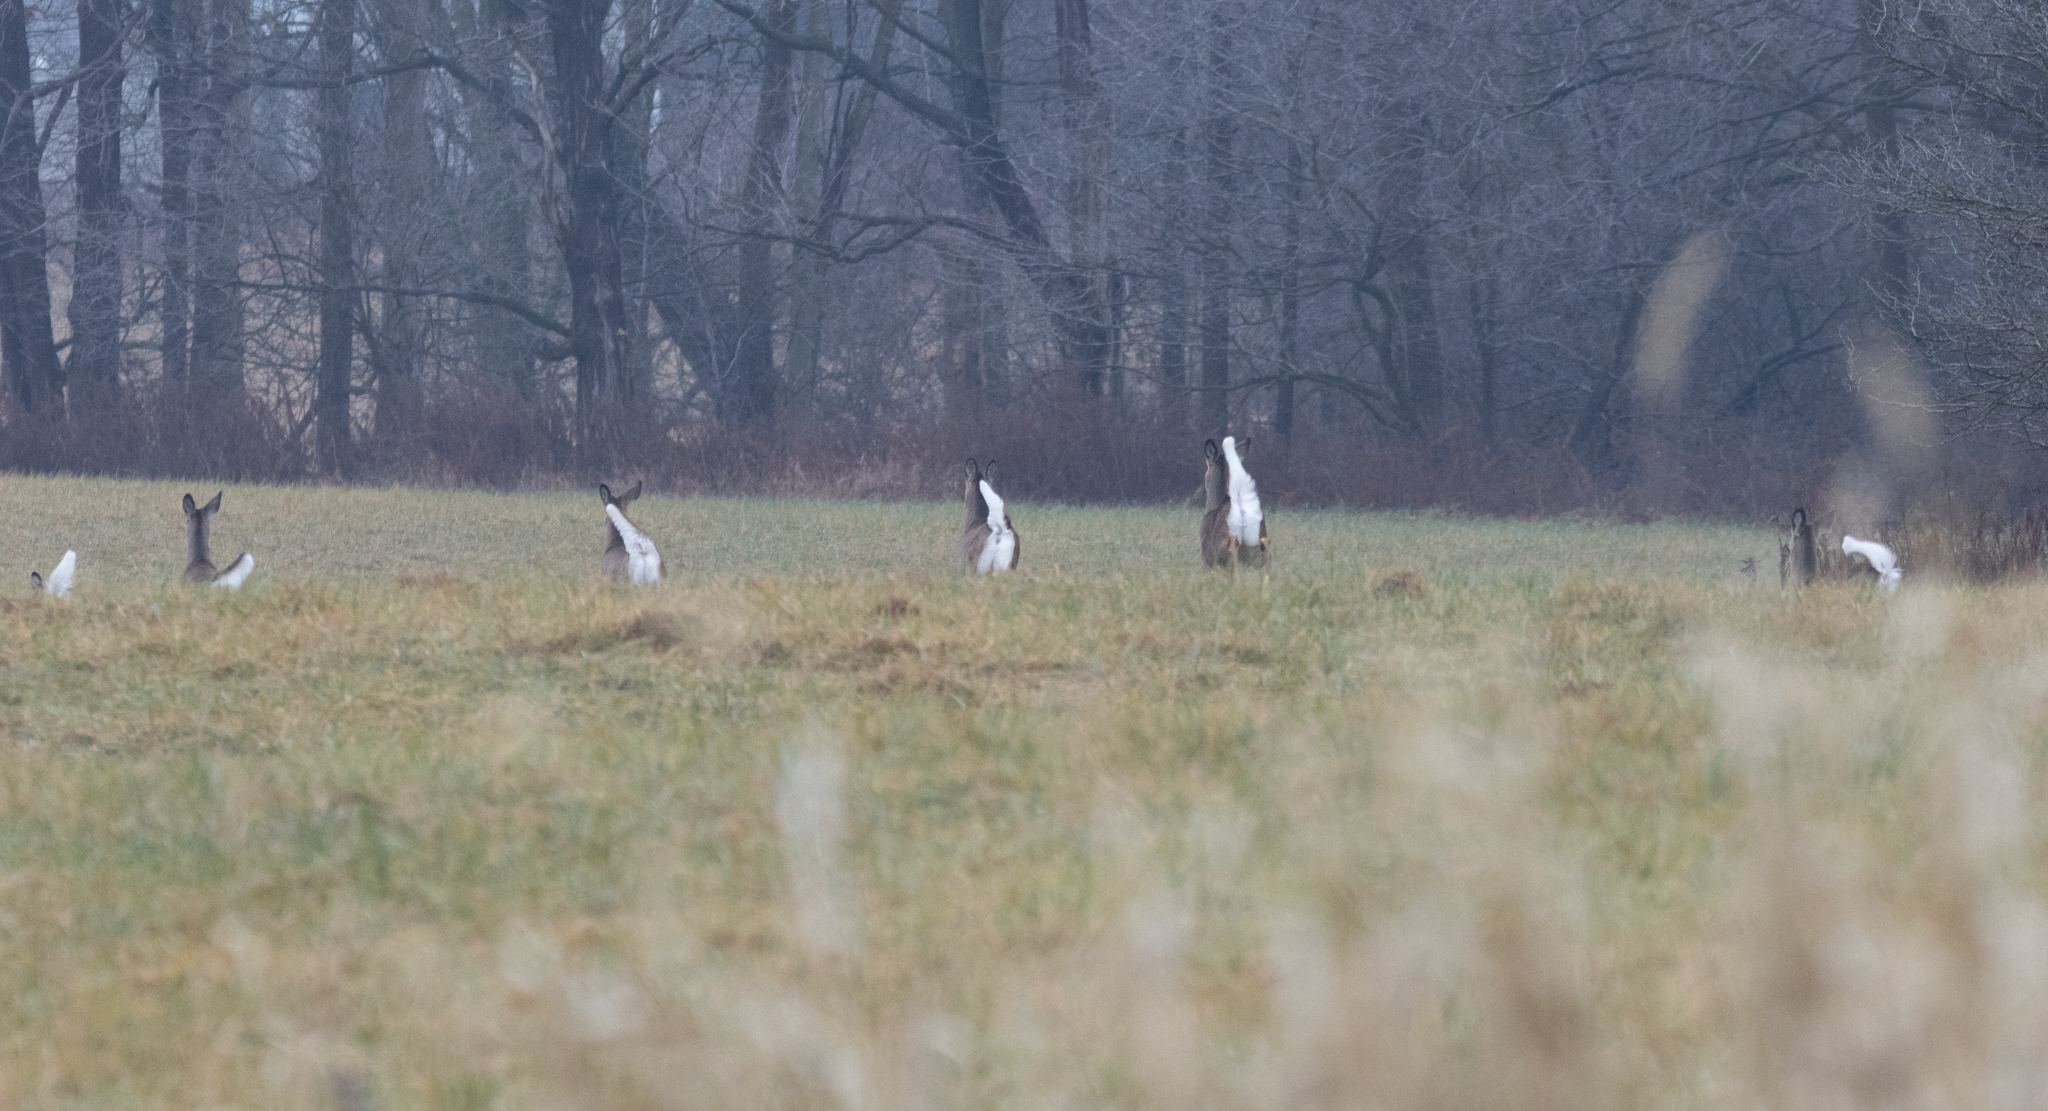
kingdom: Animalia
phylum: Chordata
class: Mammalia
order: Artiodactyla
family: Cervidae
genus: Odocoileus
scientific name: Odocoileus virginianus
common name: White-tailed deer
